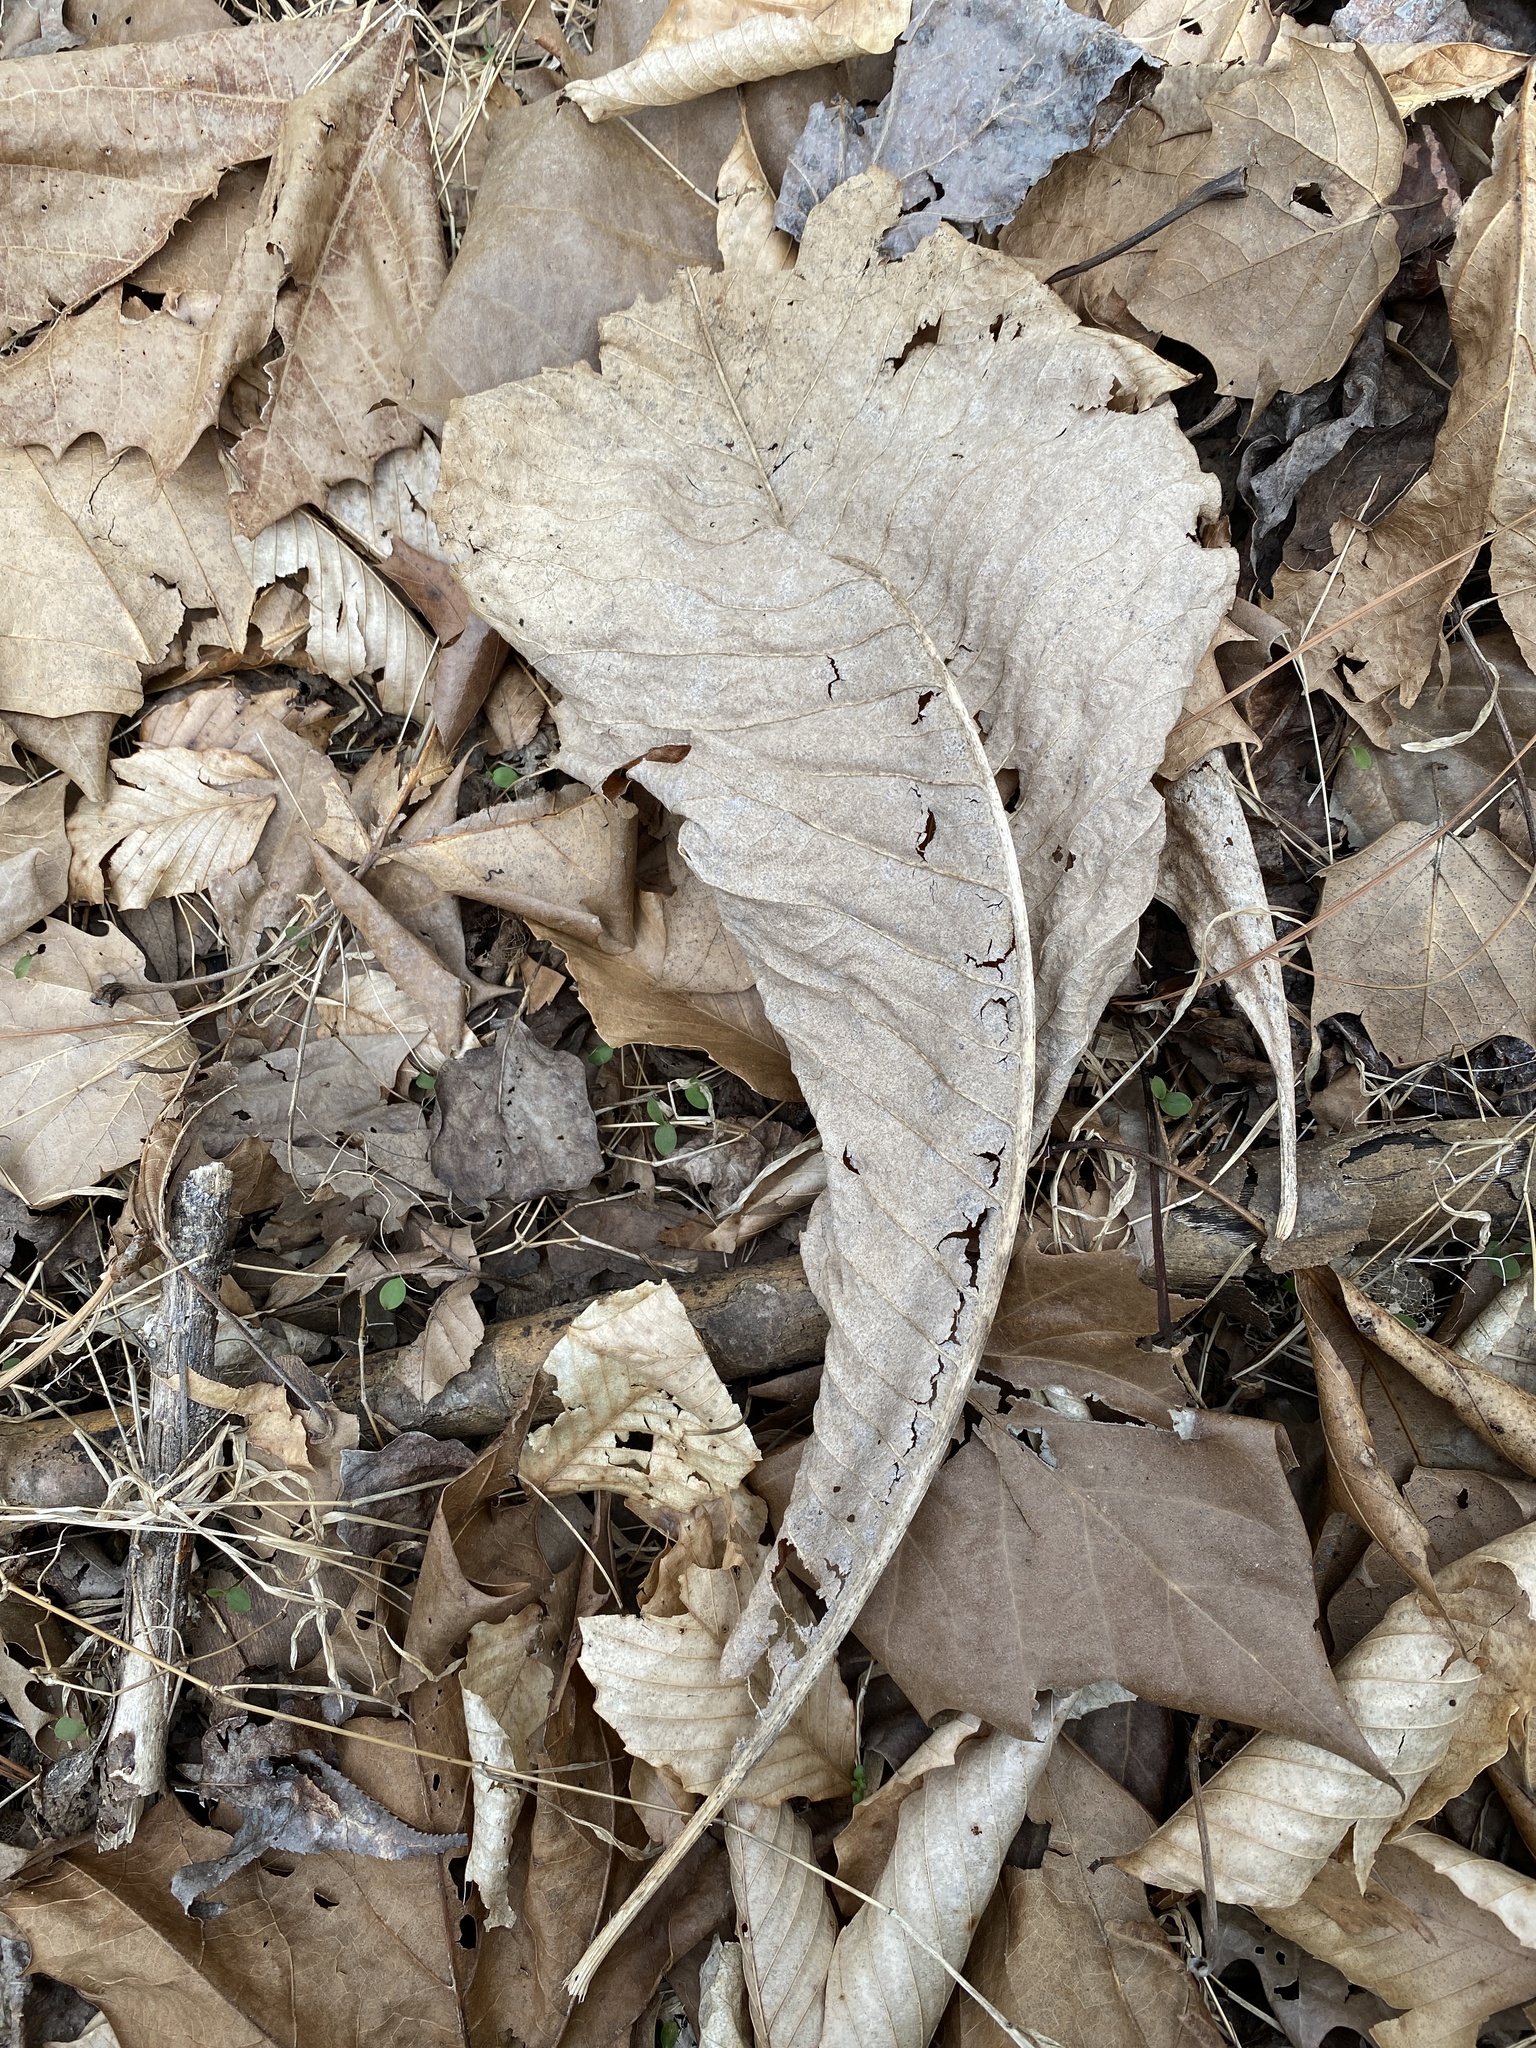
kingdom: Plantae
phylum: Tracheophyta
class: Magnoliopsida
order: Magnoliales
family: Magnoliaceae
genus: Magnolia
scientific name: Magnolia tripetala
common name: Umbrella magnolia
